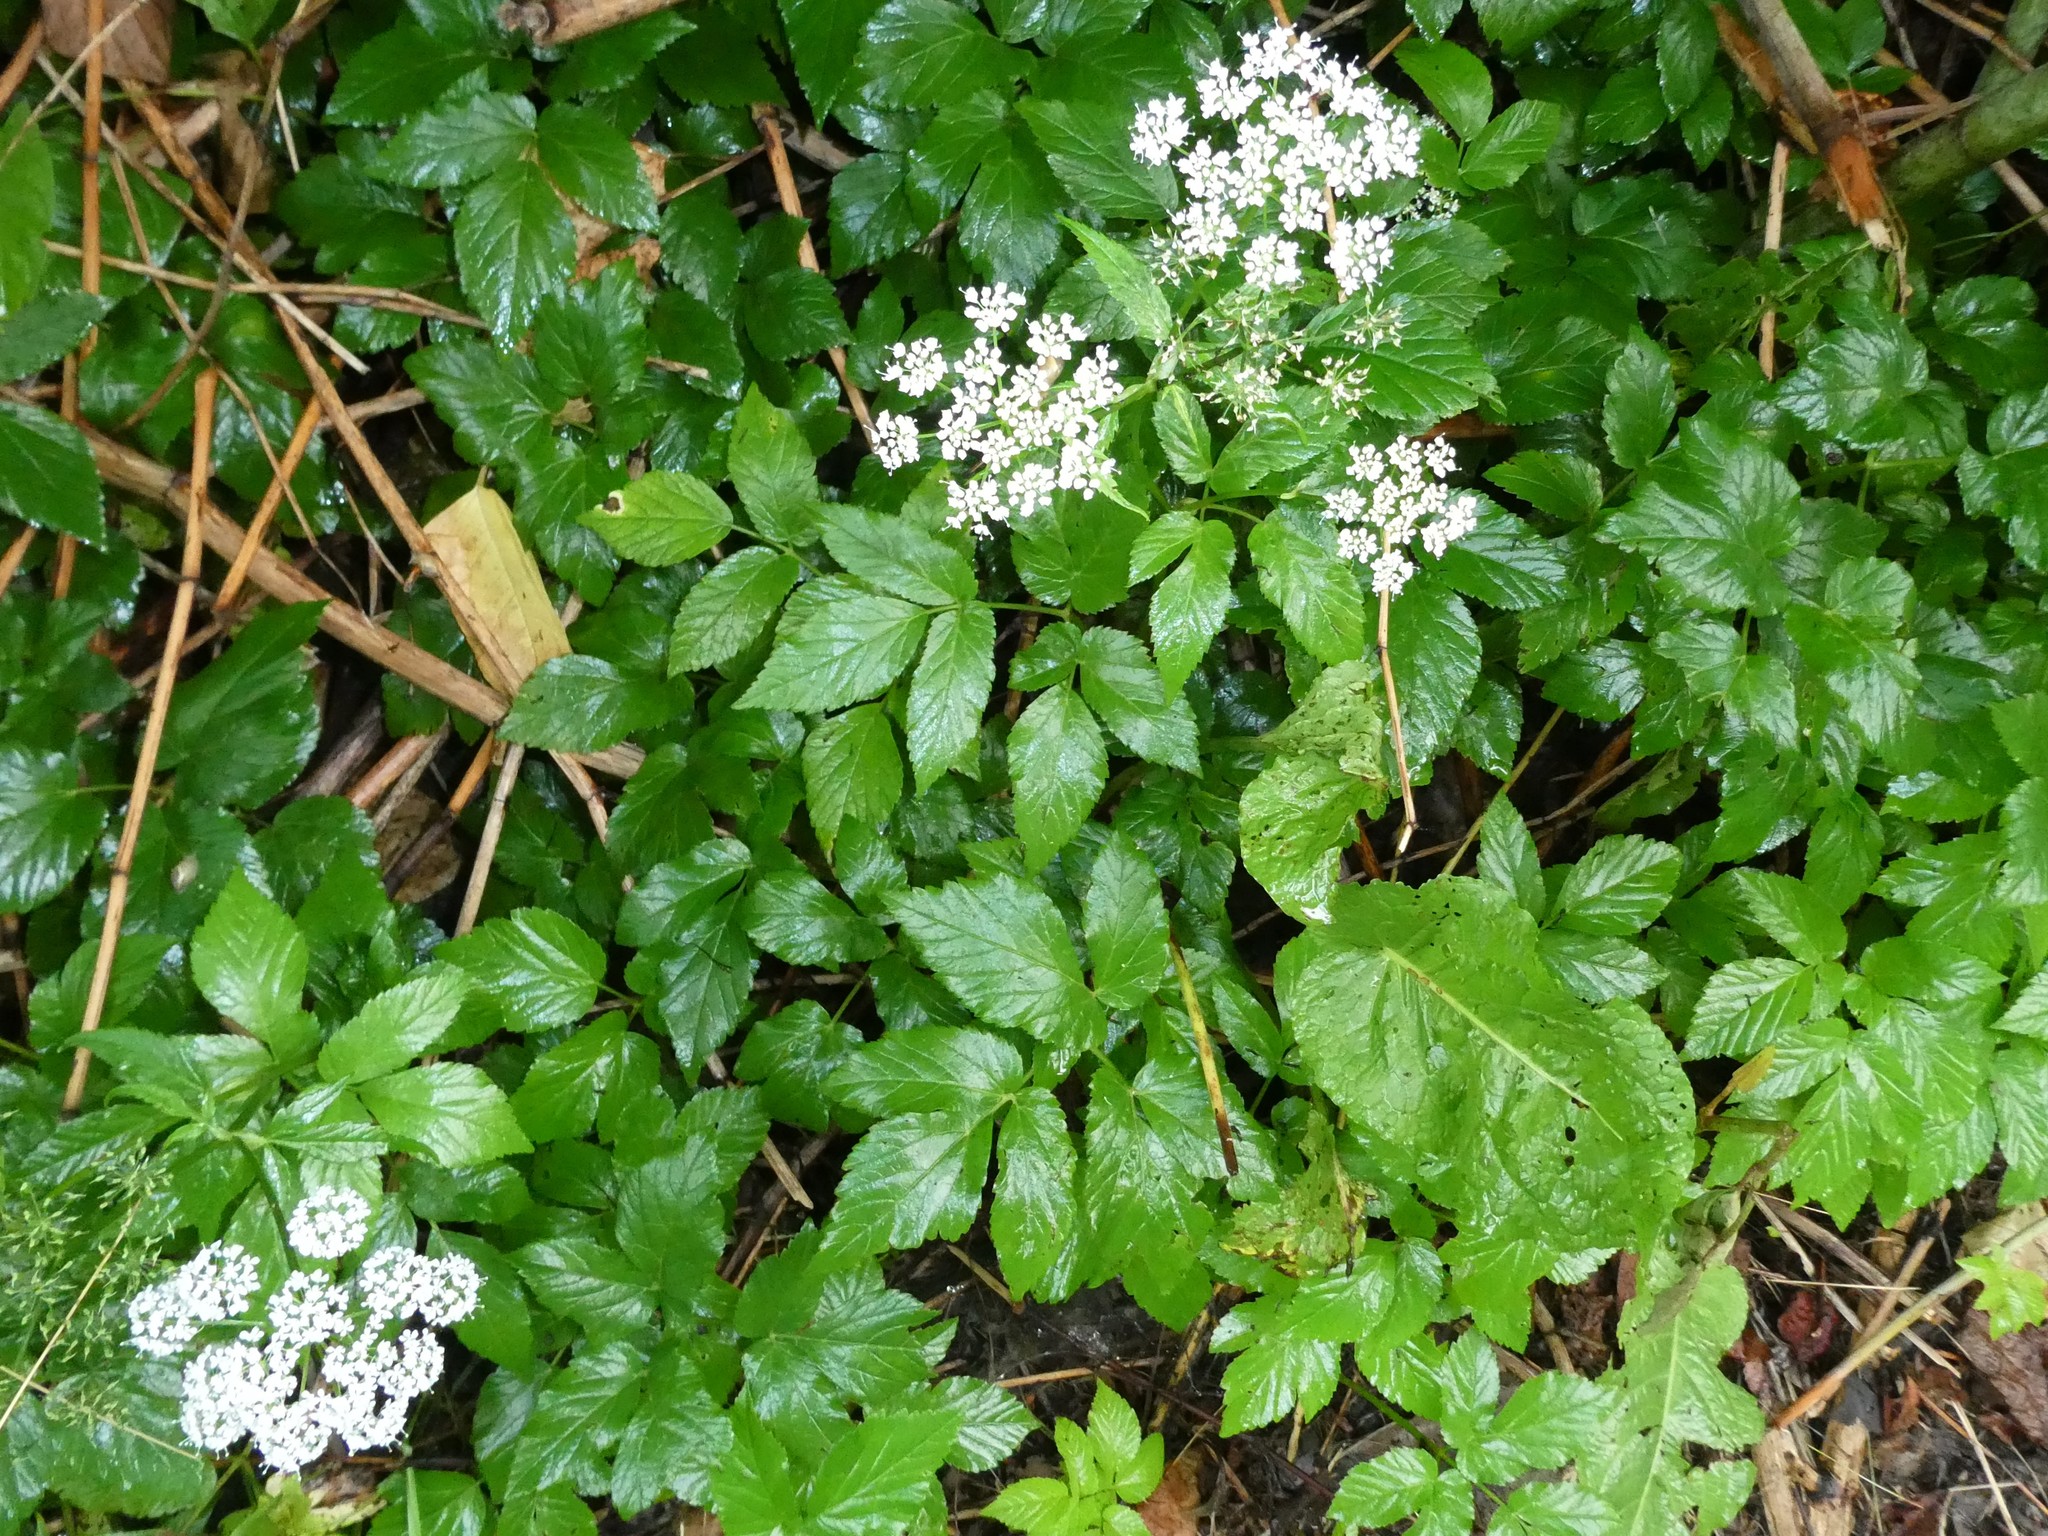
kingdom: Plantae
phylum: Tracheophyta
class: Magnoliopsida
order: Apiales
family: Apiaceae
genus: Aegopodium
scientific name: Aegopodium podagraria
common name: Ground-elder
